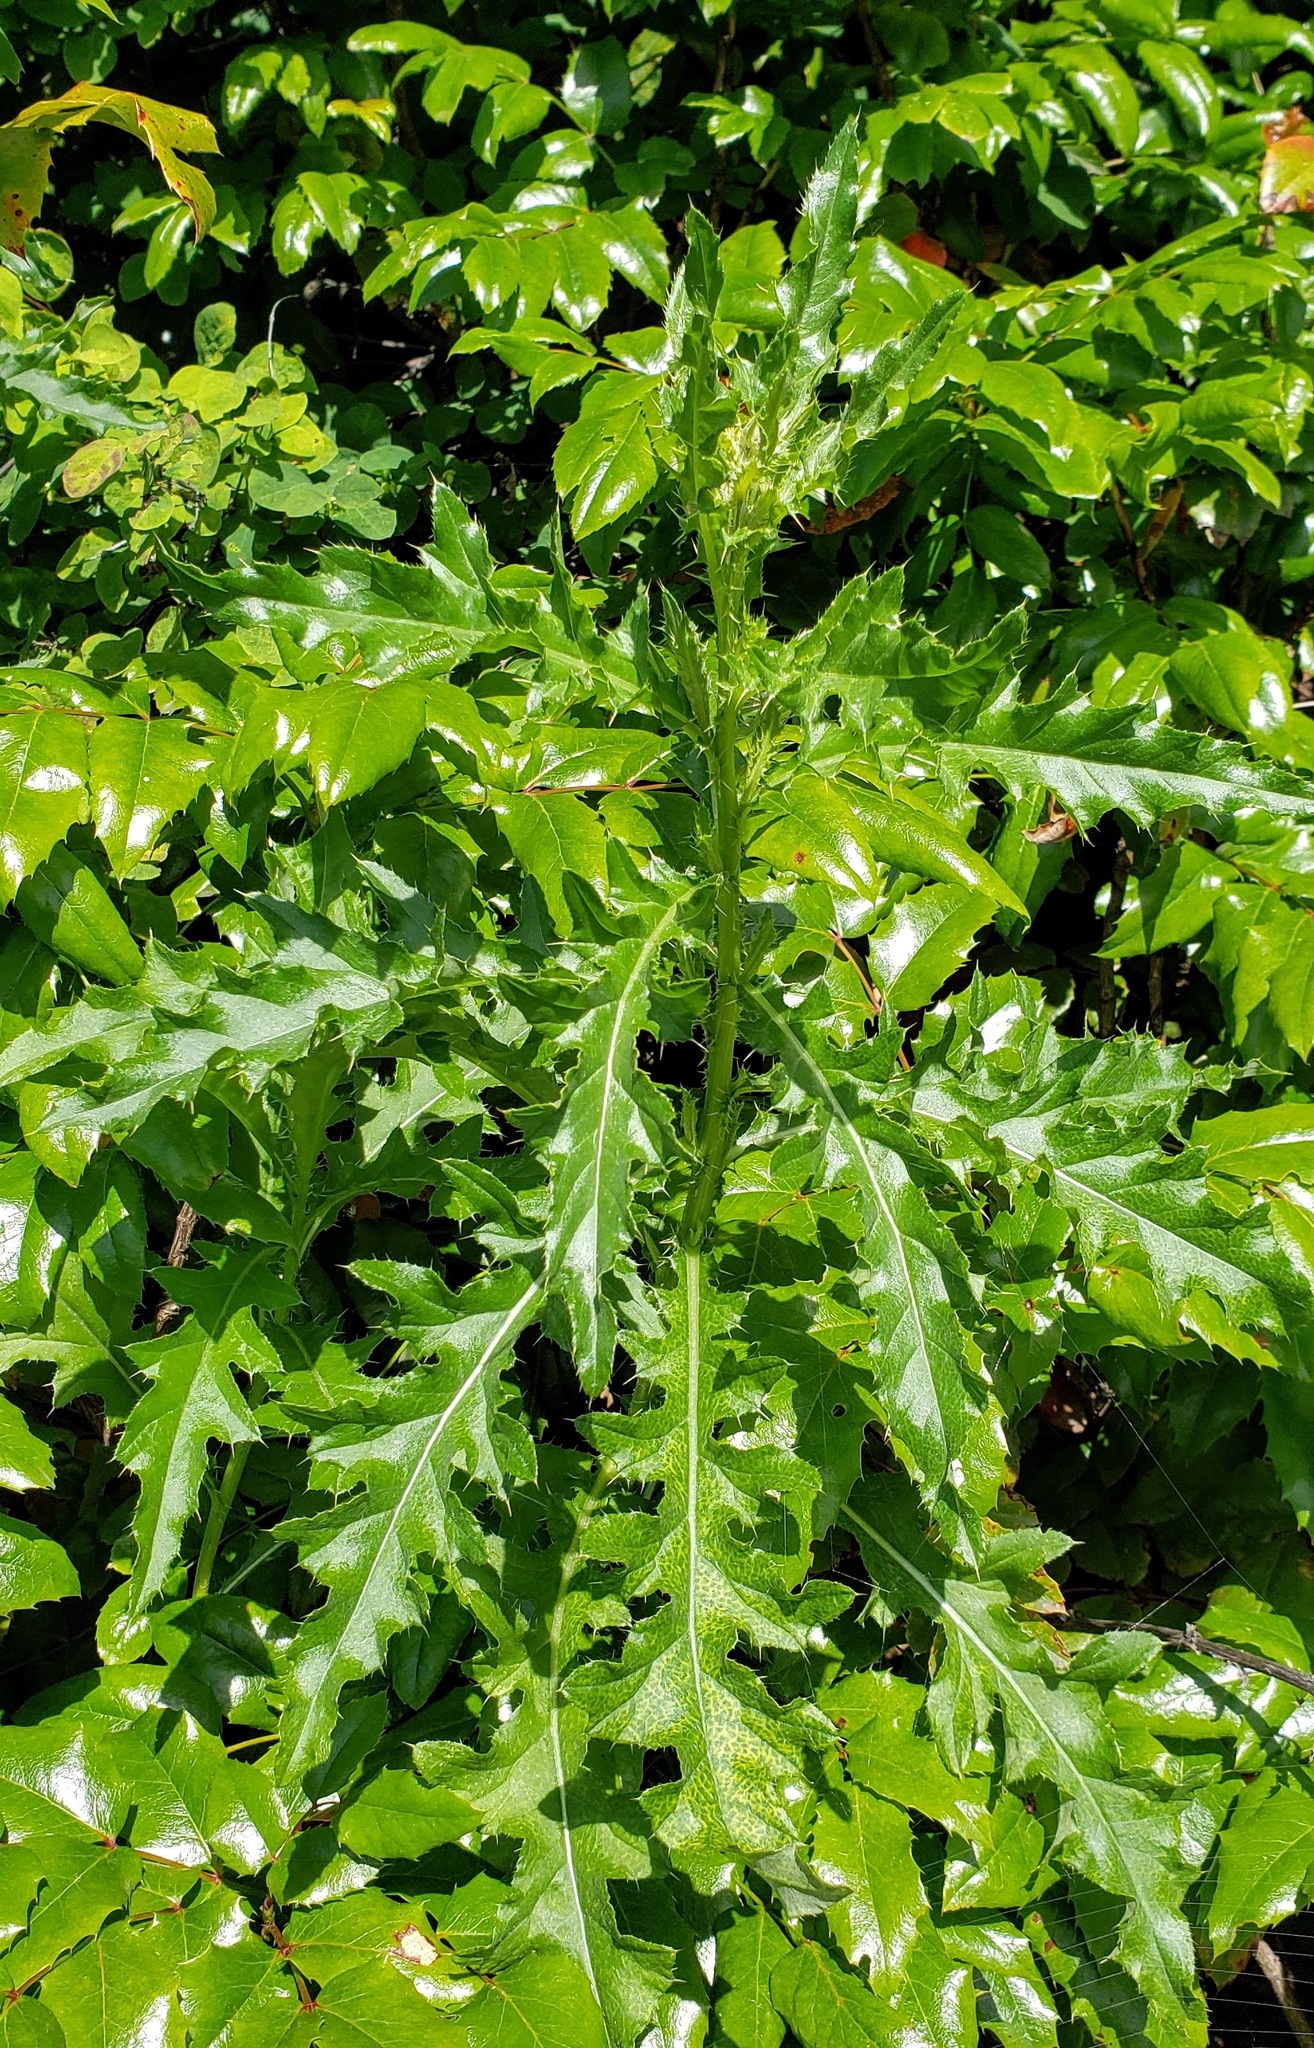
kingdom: Plantae
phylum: Tracheophyta
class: Magnoliopsida
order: Asterales
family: Asteraceae
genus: Cirsium
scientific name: Cirsium arvense
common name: Creeping thistle
